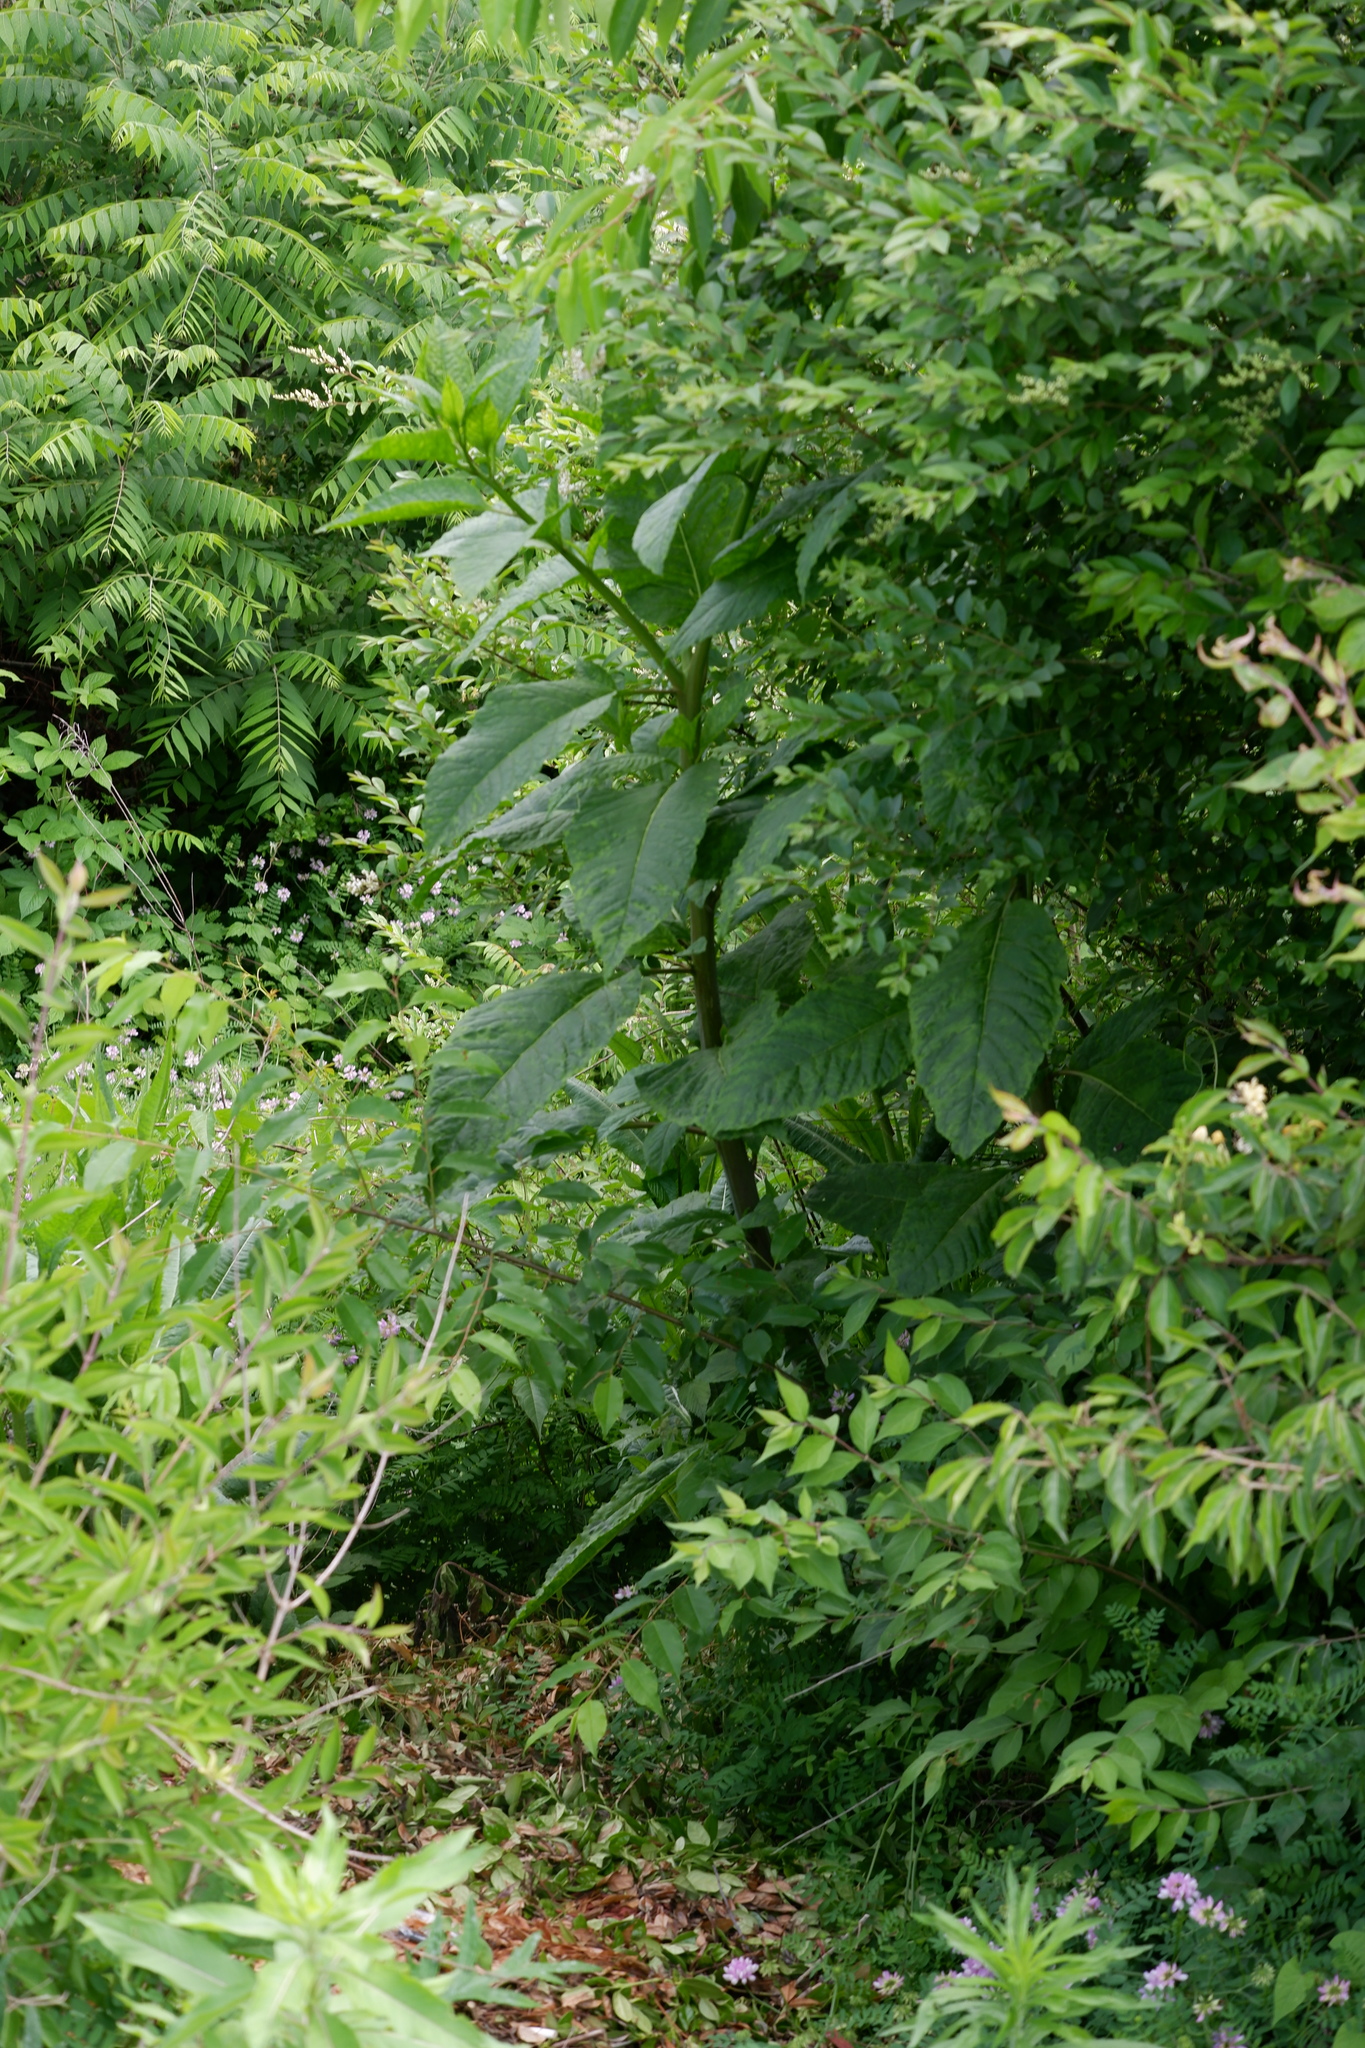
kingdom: Plantae
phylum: Tracheophyta
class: Magnoliopsida
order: Caryophyllales
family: Phytolaccaceae
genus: Phytolacca
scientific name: Phytolacca americana
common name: American pokeweed
